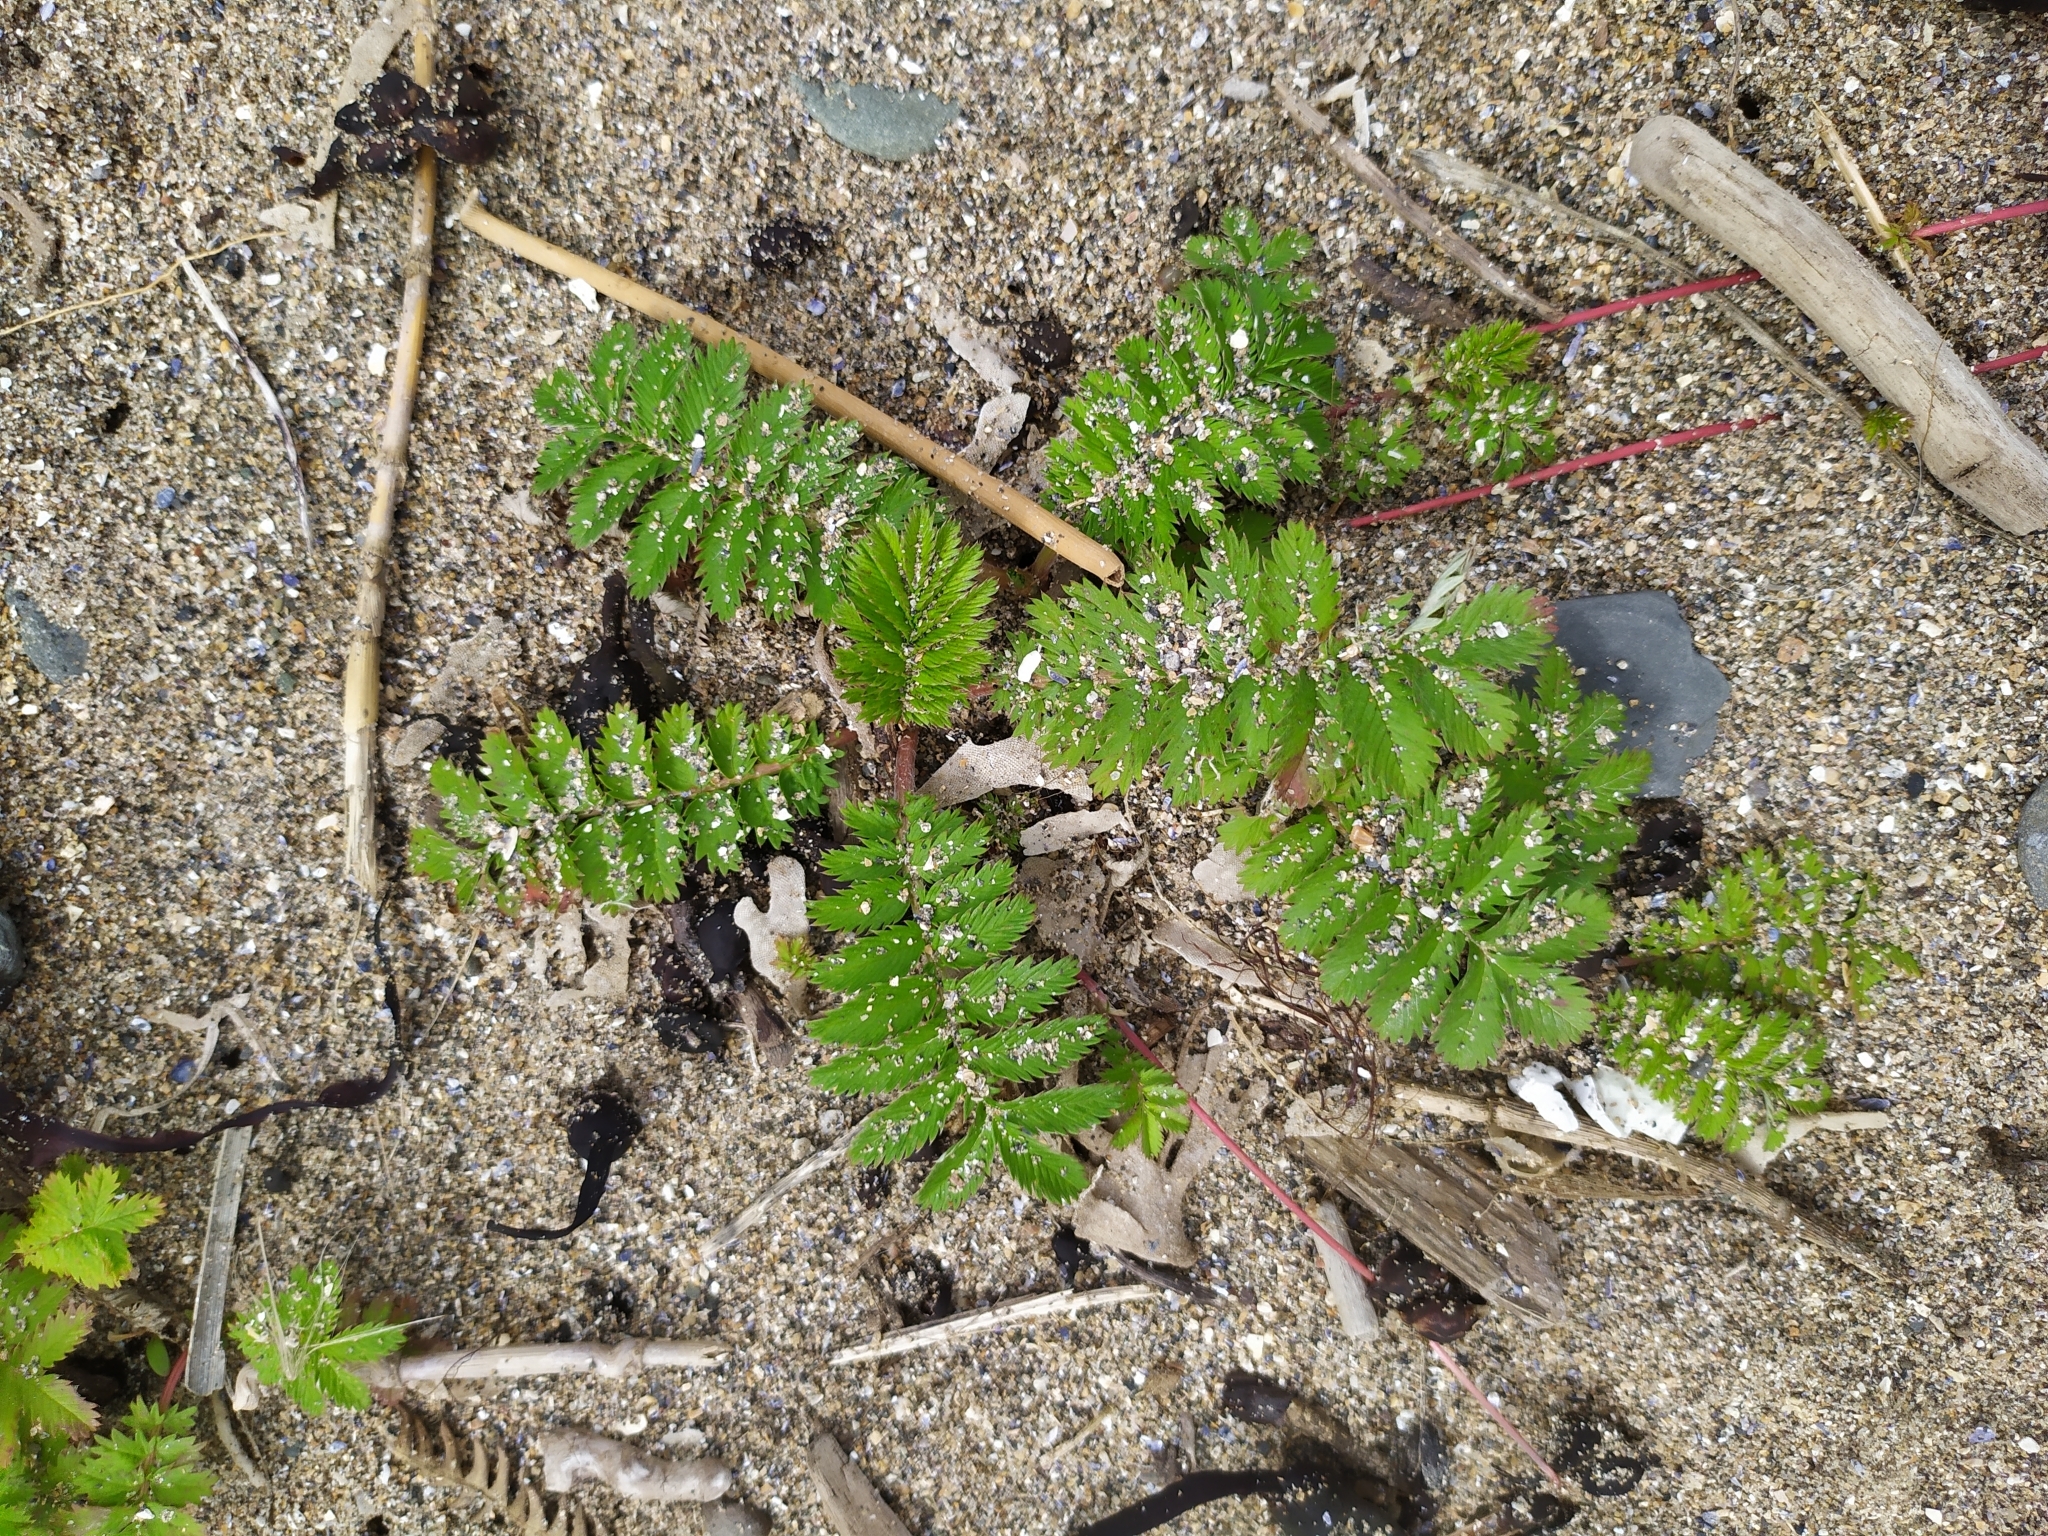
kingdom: Plantae
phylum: Tracheophyta
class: Magnoliopsida
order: Rosales
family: Rosaceae
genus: Argentina
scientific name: Argentina anserina
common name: Common silverweed
